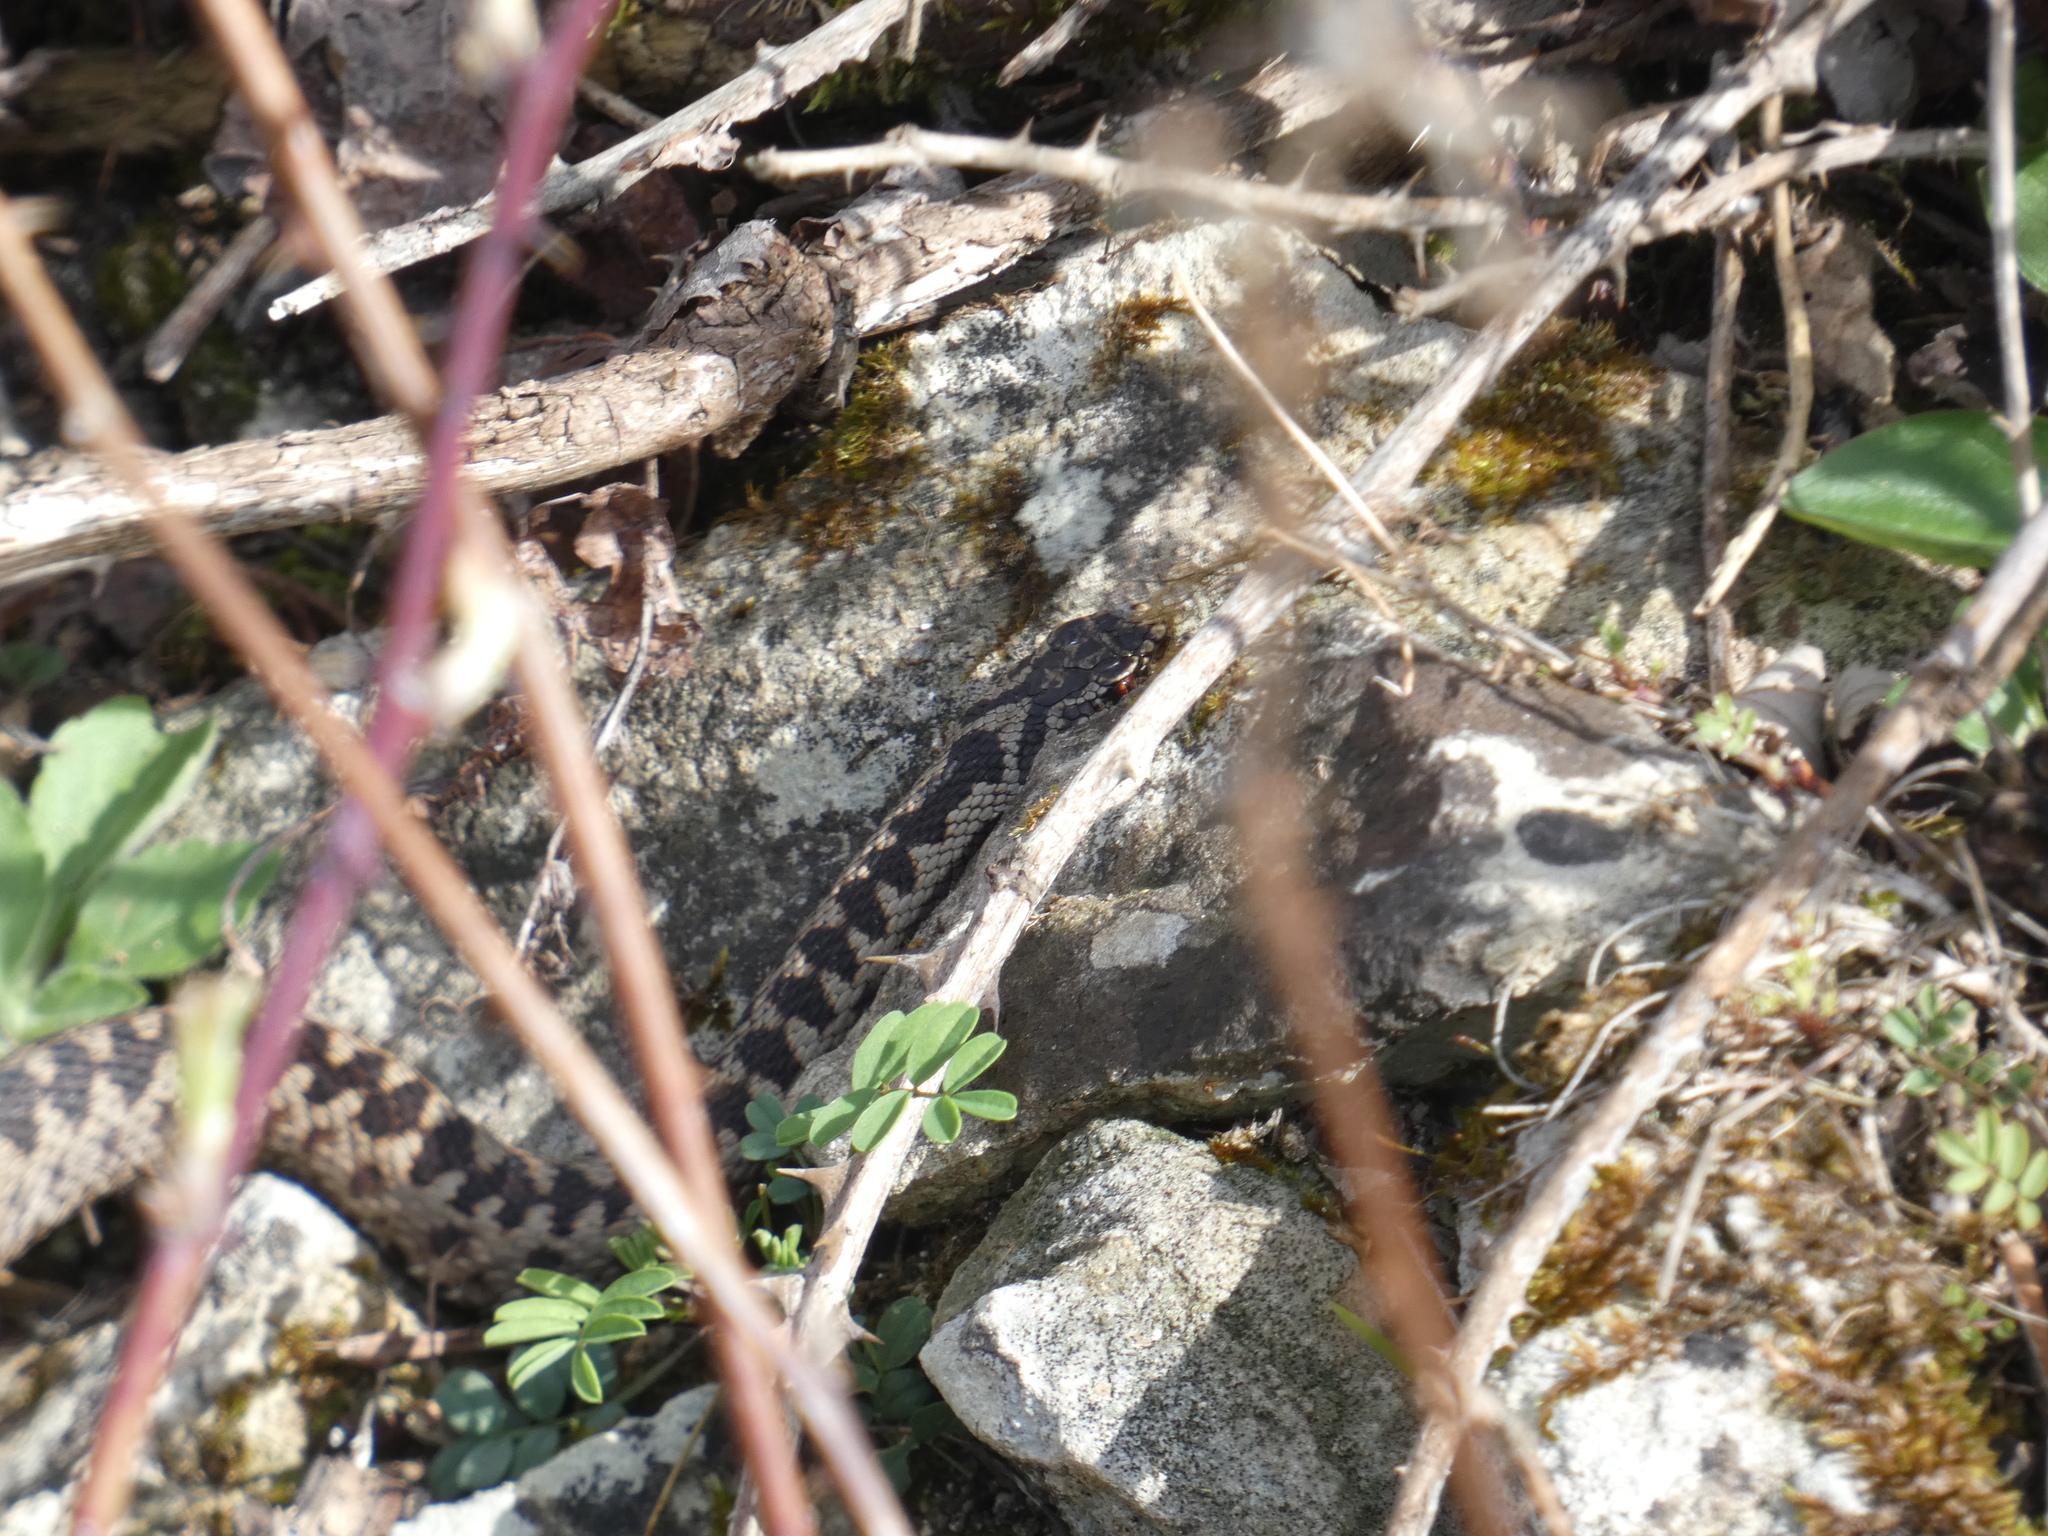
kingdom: Animalia
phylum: Chordata
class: Squamata
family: Viperidae
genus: Vipera
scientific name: Vipera berus
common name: Adder
